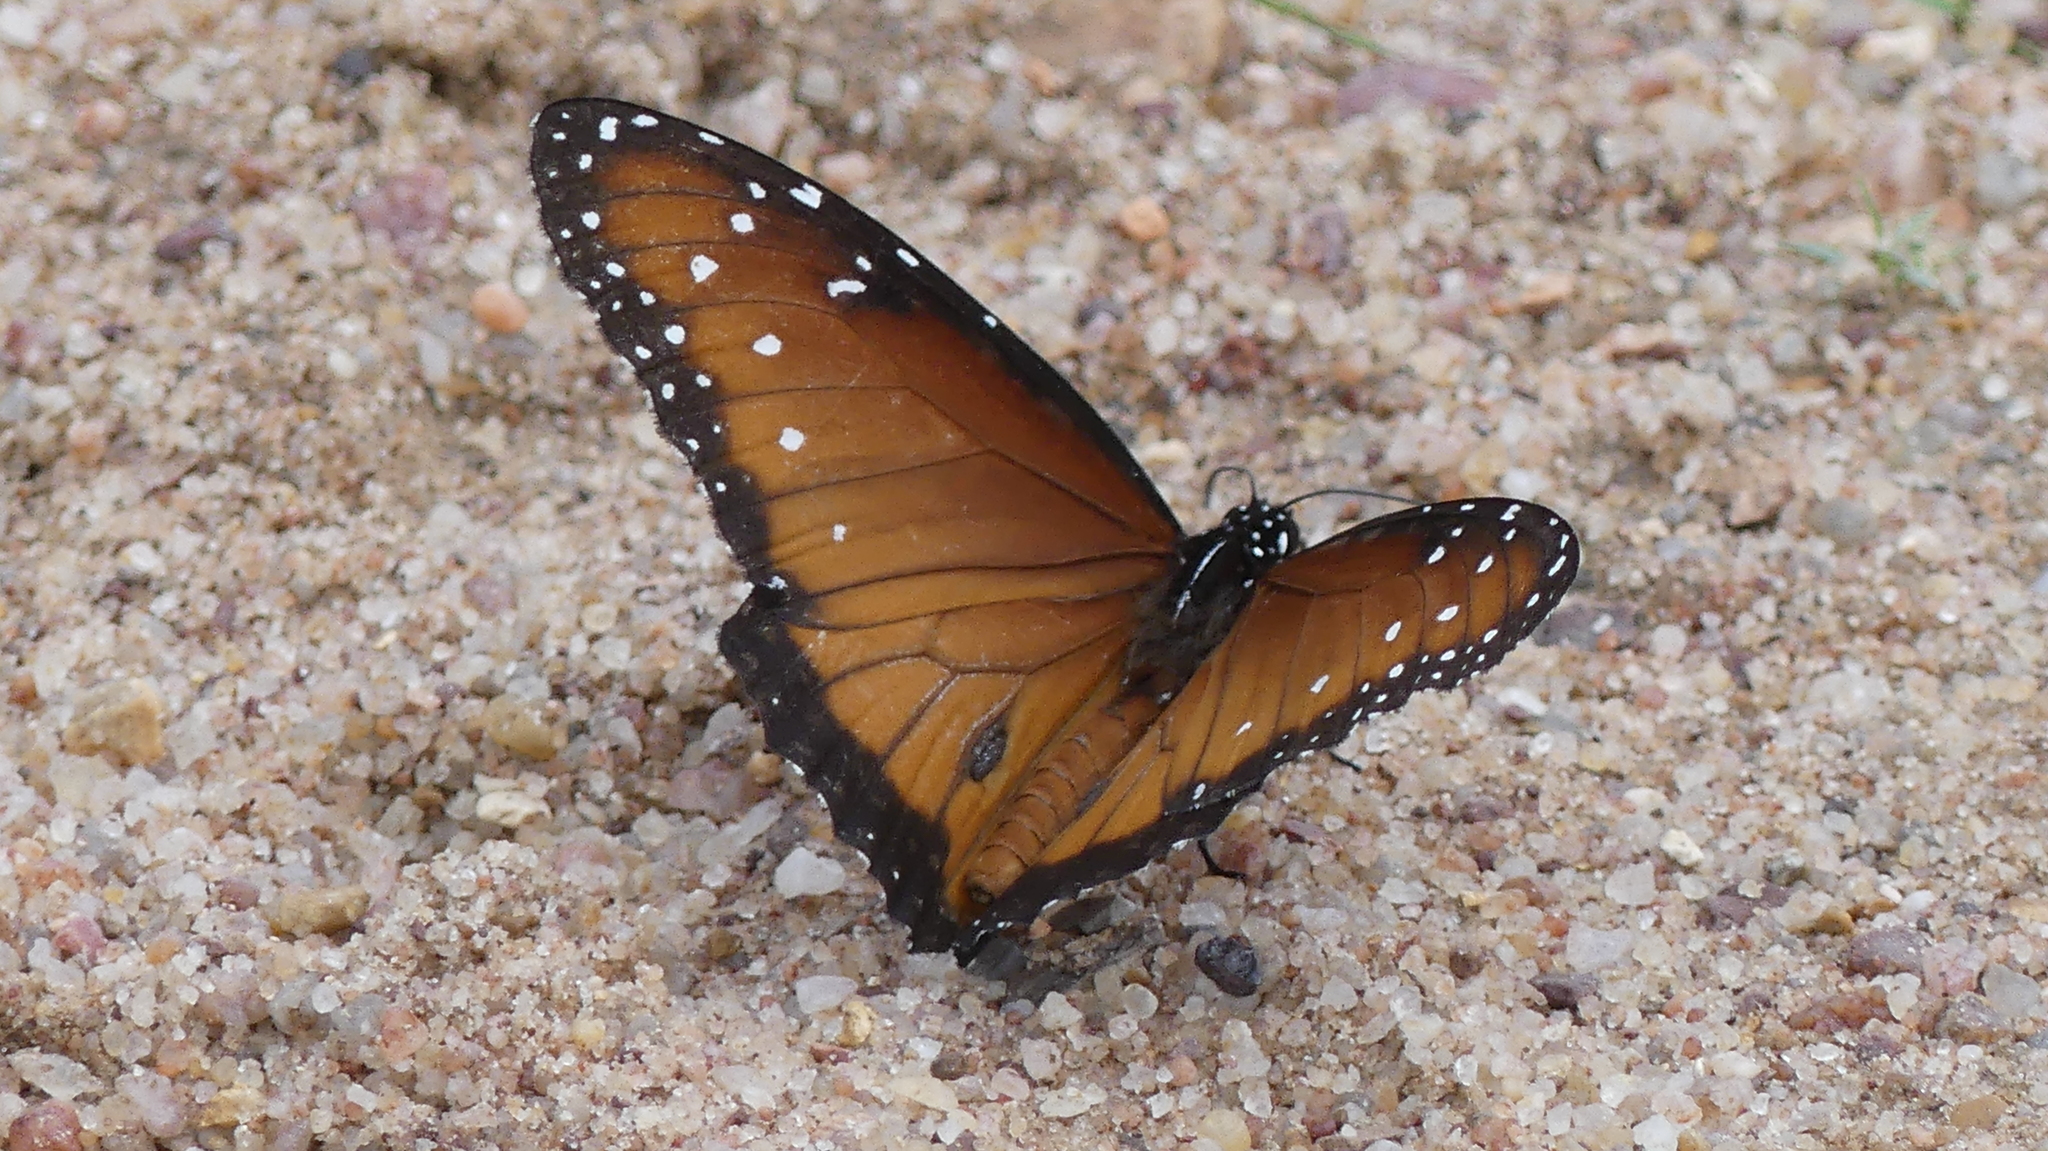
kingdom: Animalia
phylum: Arthropoda
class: Insecta
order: Lepidoptera
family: Nymphalidae
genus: Danaus
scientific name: Danaus gilippus
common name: Queen
